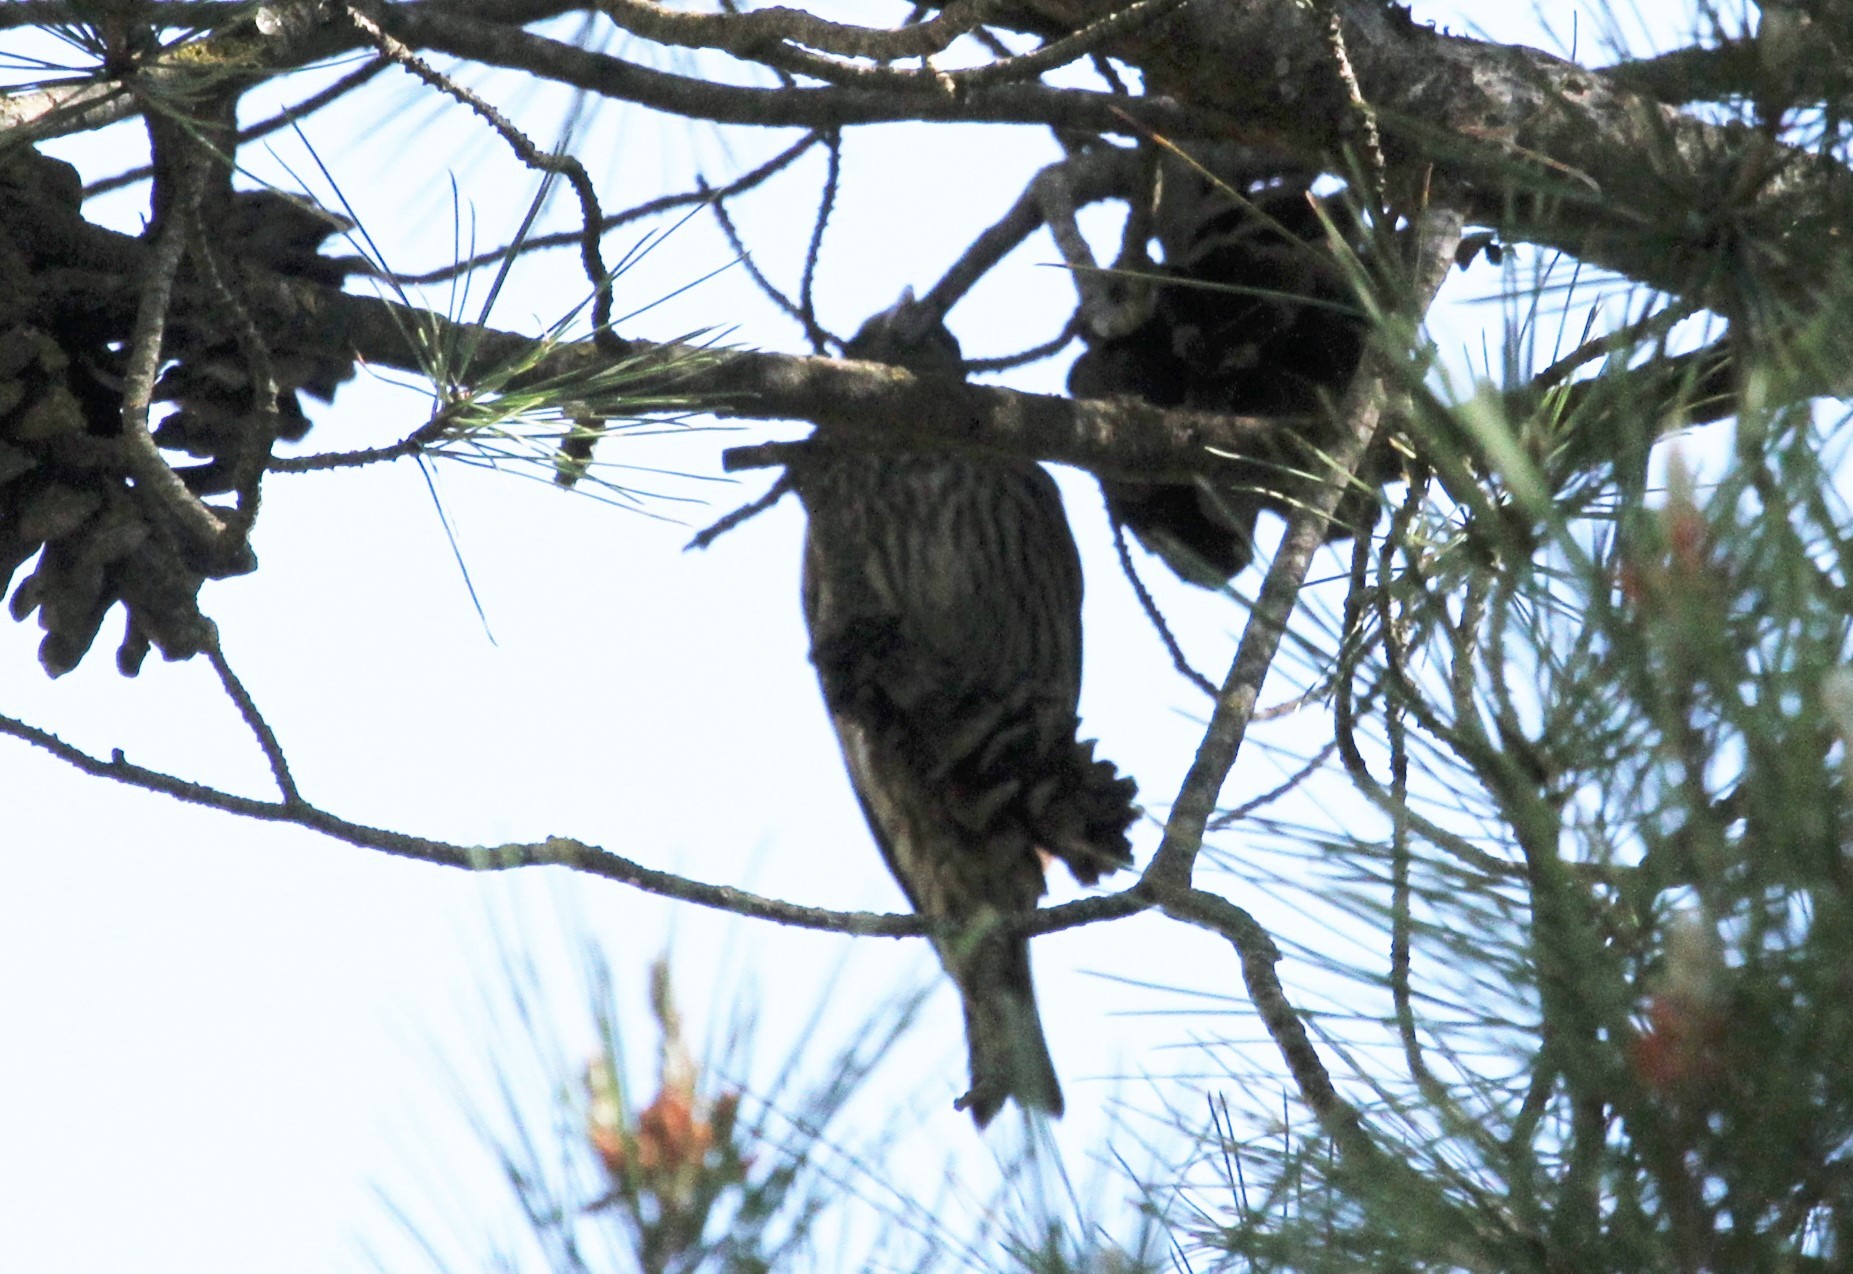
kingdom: Animalia
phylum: Chordata
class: Aves
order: Passeriformes
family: Fringillidae
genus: Loxia
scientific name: Loxia curvirostra
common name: Red crossbill
